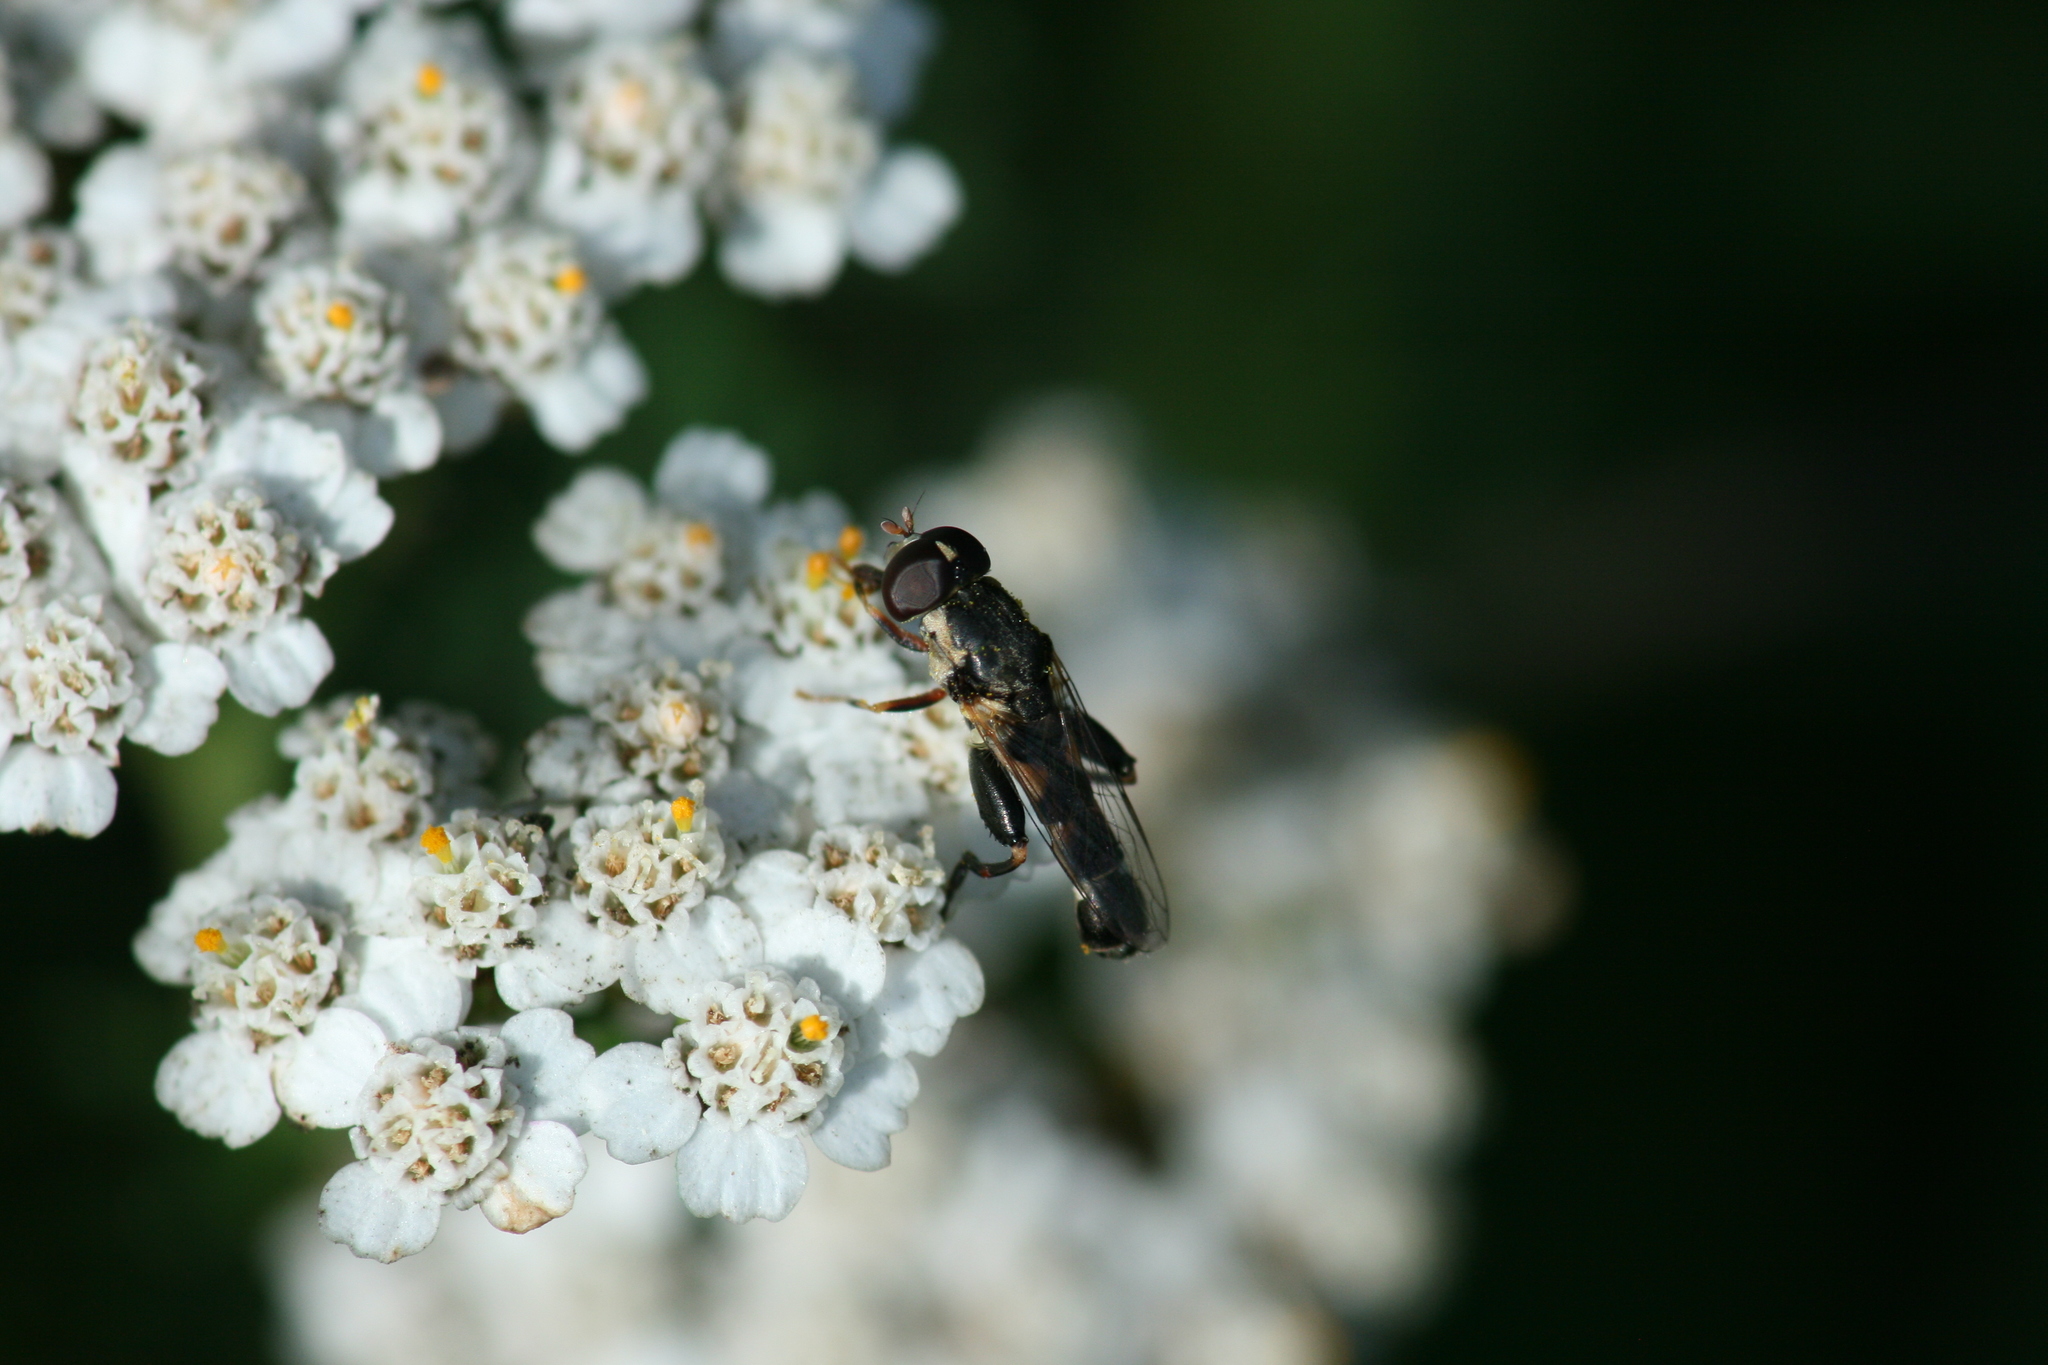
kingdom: Animalia
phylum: Arthropoda
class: Insecta
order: Diptera
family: Syrphidae
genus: Syritta
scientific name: Syritta pipiens
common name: Hover fly
